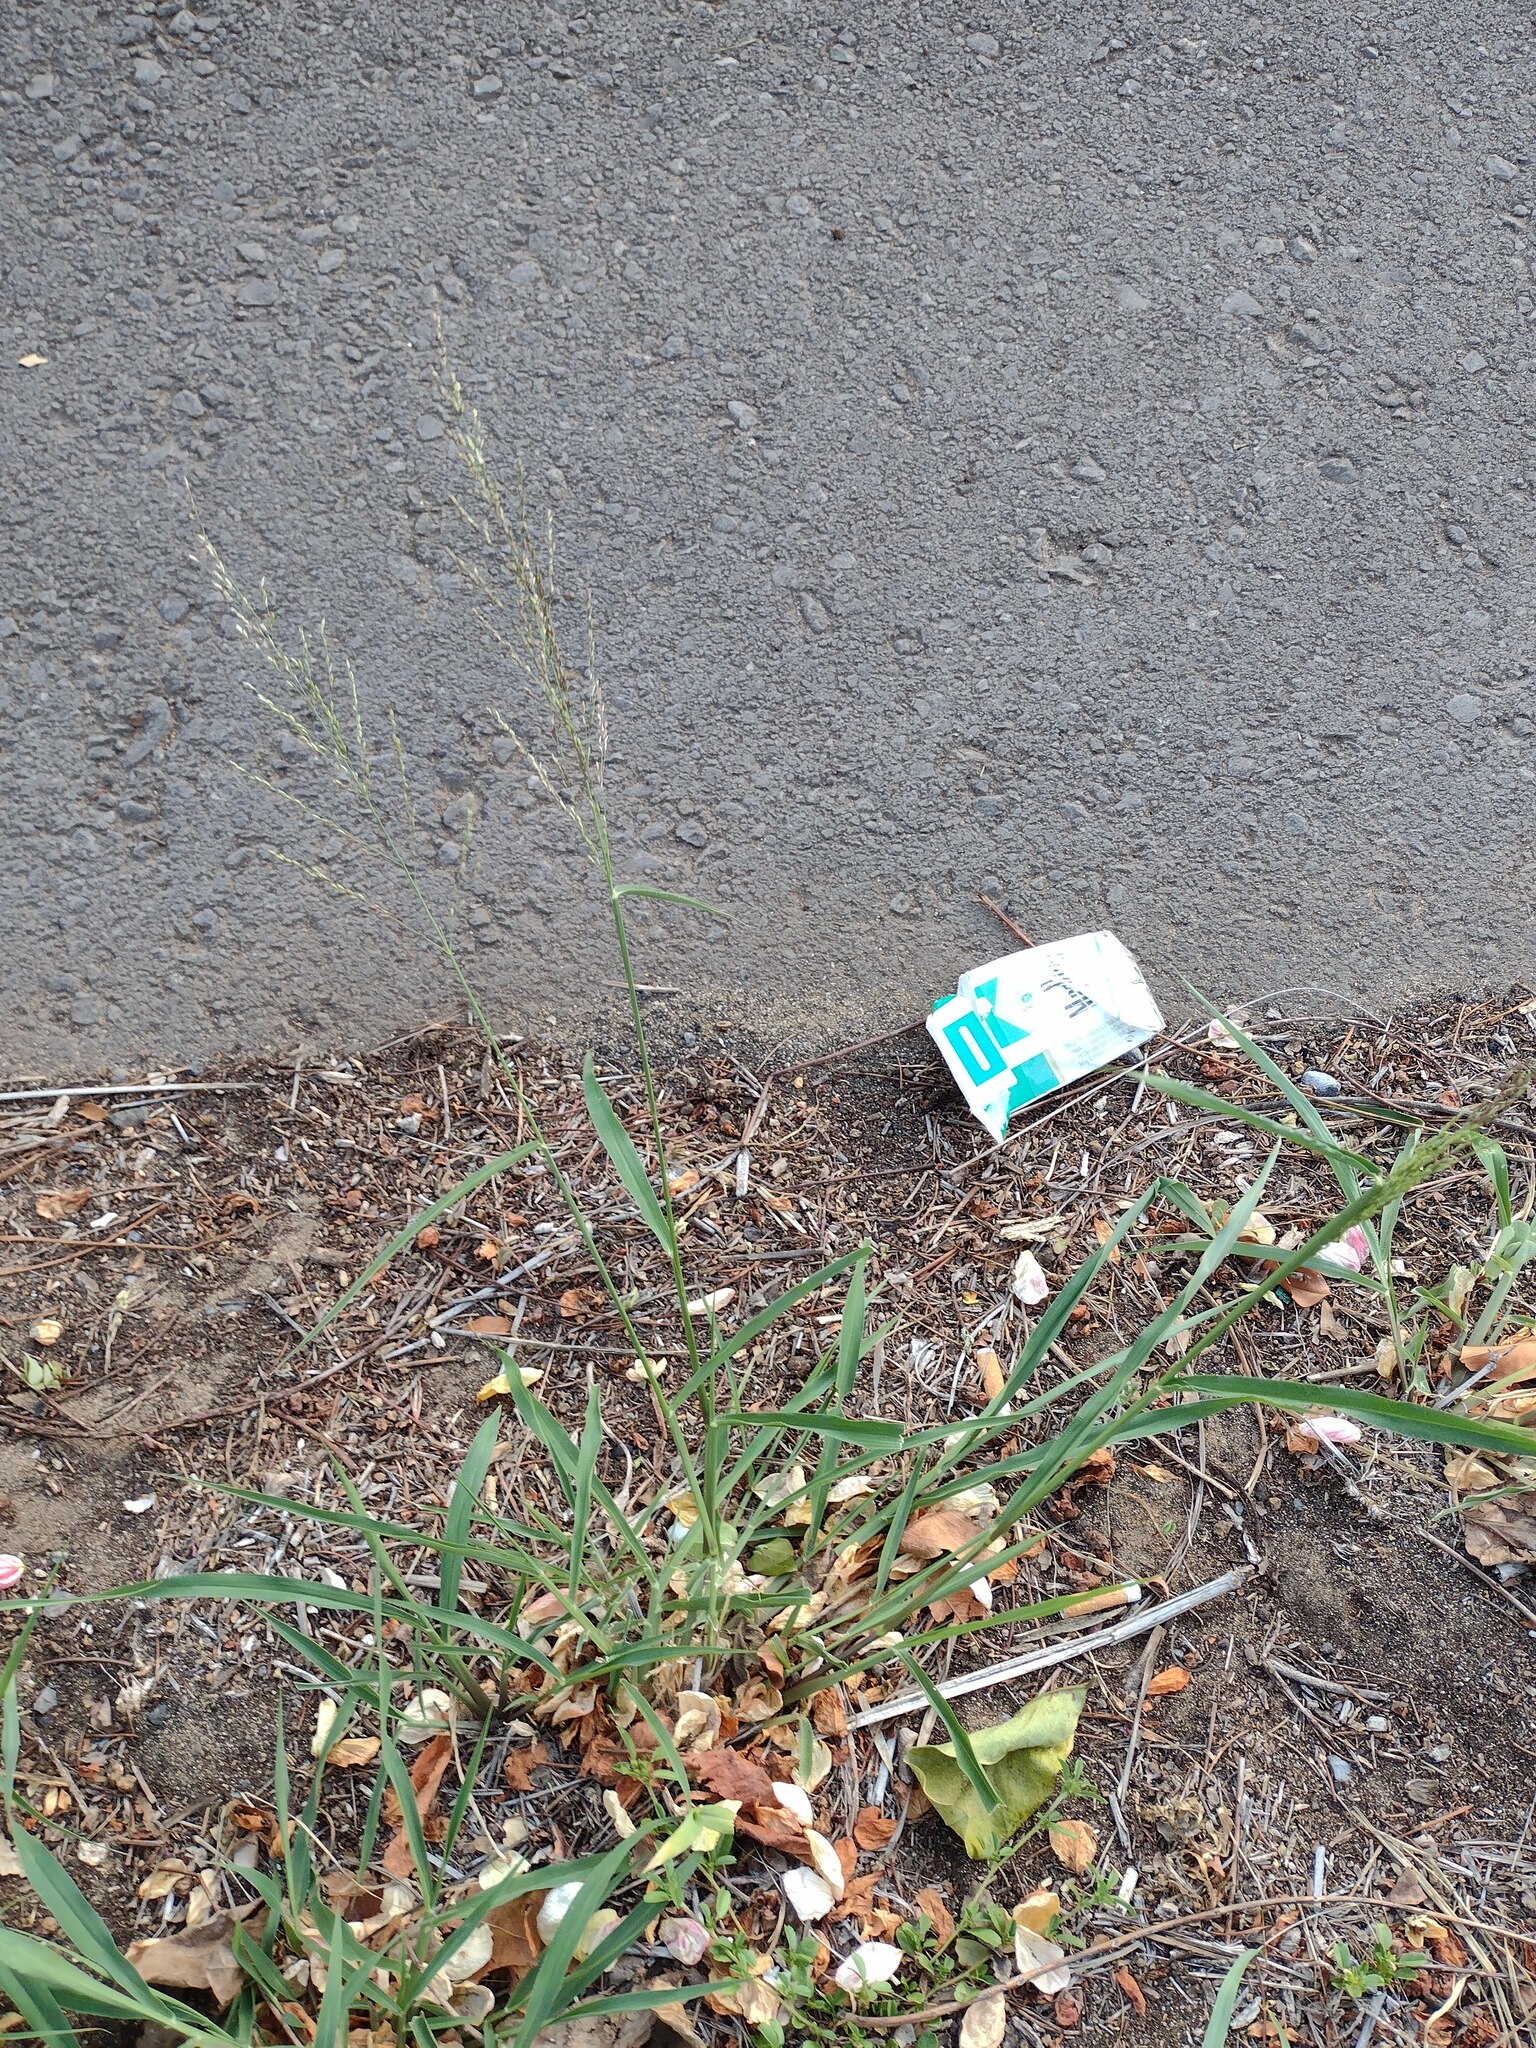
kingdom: Plantae
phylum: Tracheophyta
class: Liliopsida
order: Poales
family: Poaceae
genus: Megathyrsus
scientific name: Megathyrsus maximus
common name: Guineagrass
